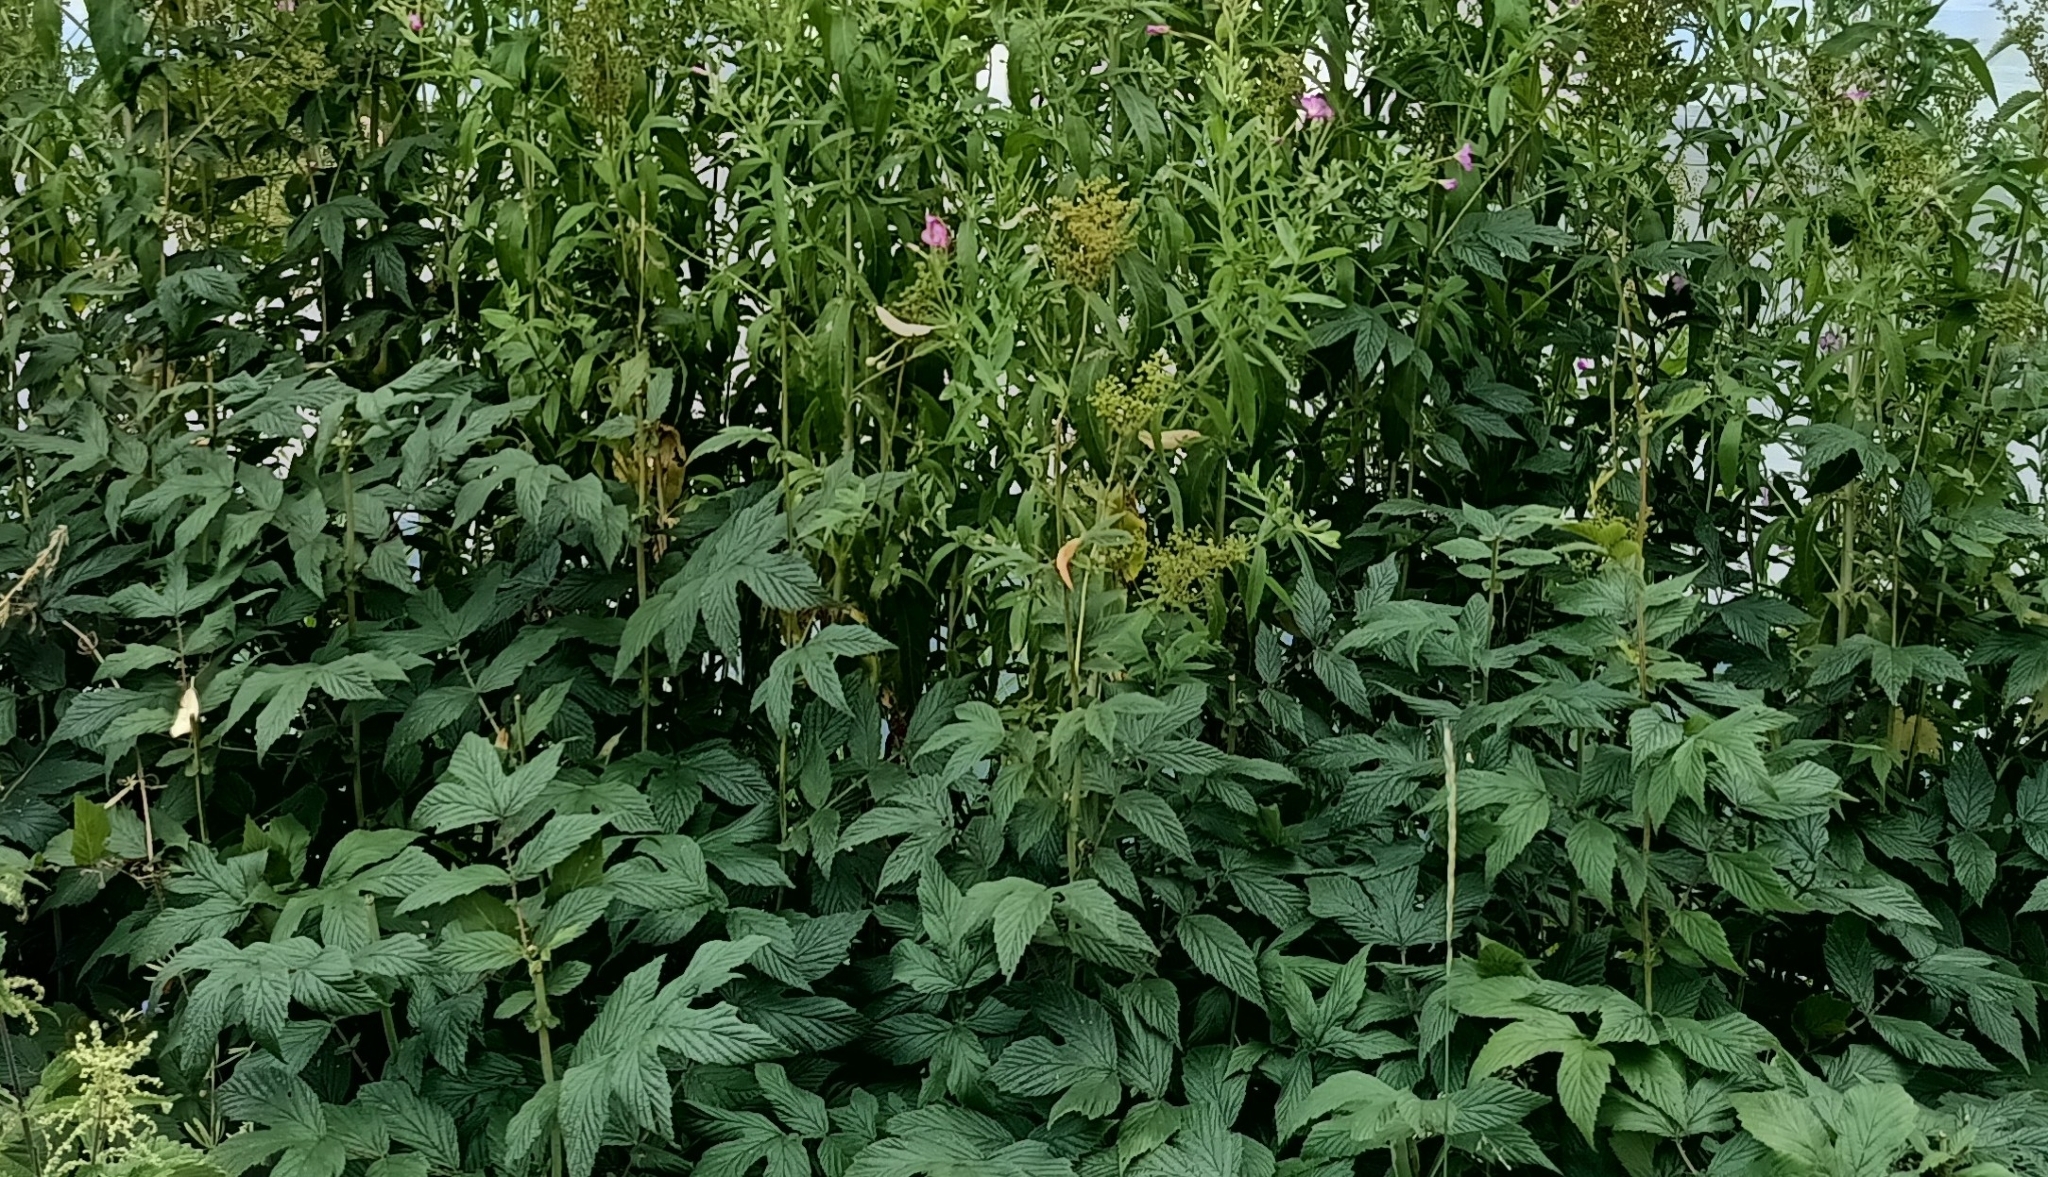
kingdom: Plantae
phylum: Tracheophyta
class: Magnoliopsida
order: Rosales
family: Rosaceae
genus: Filipendula
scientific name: Filipendula ulmaria
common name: Meadowsweet
